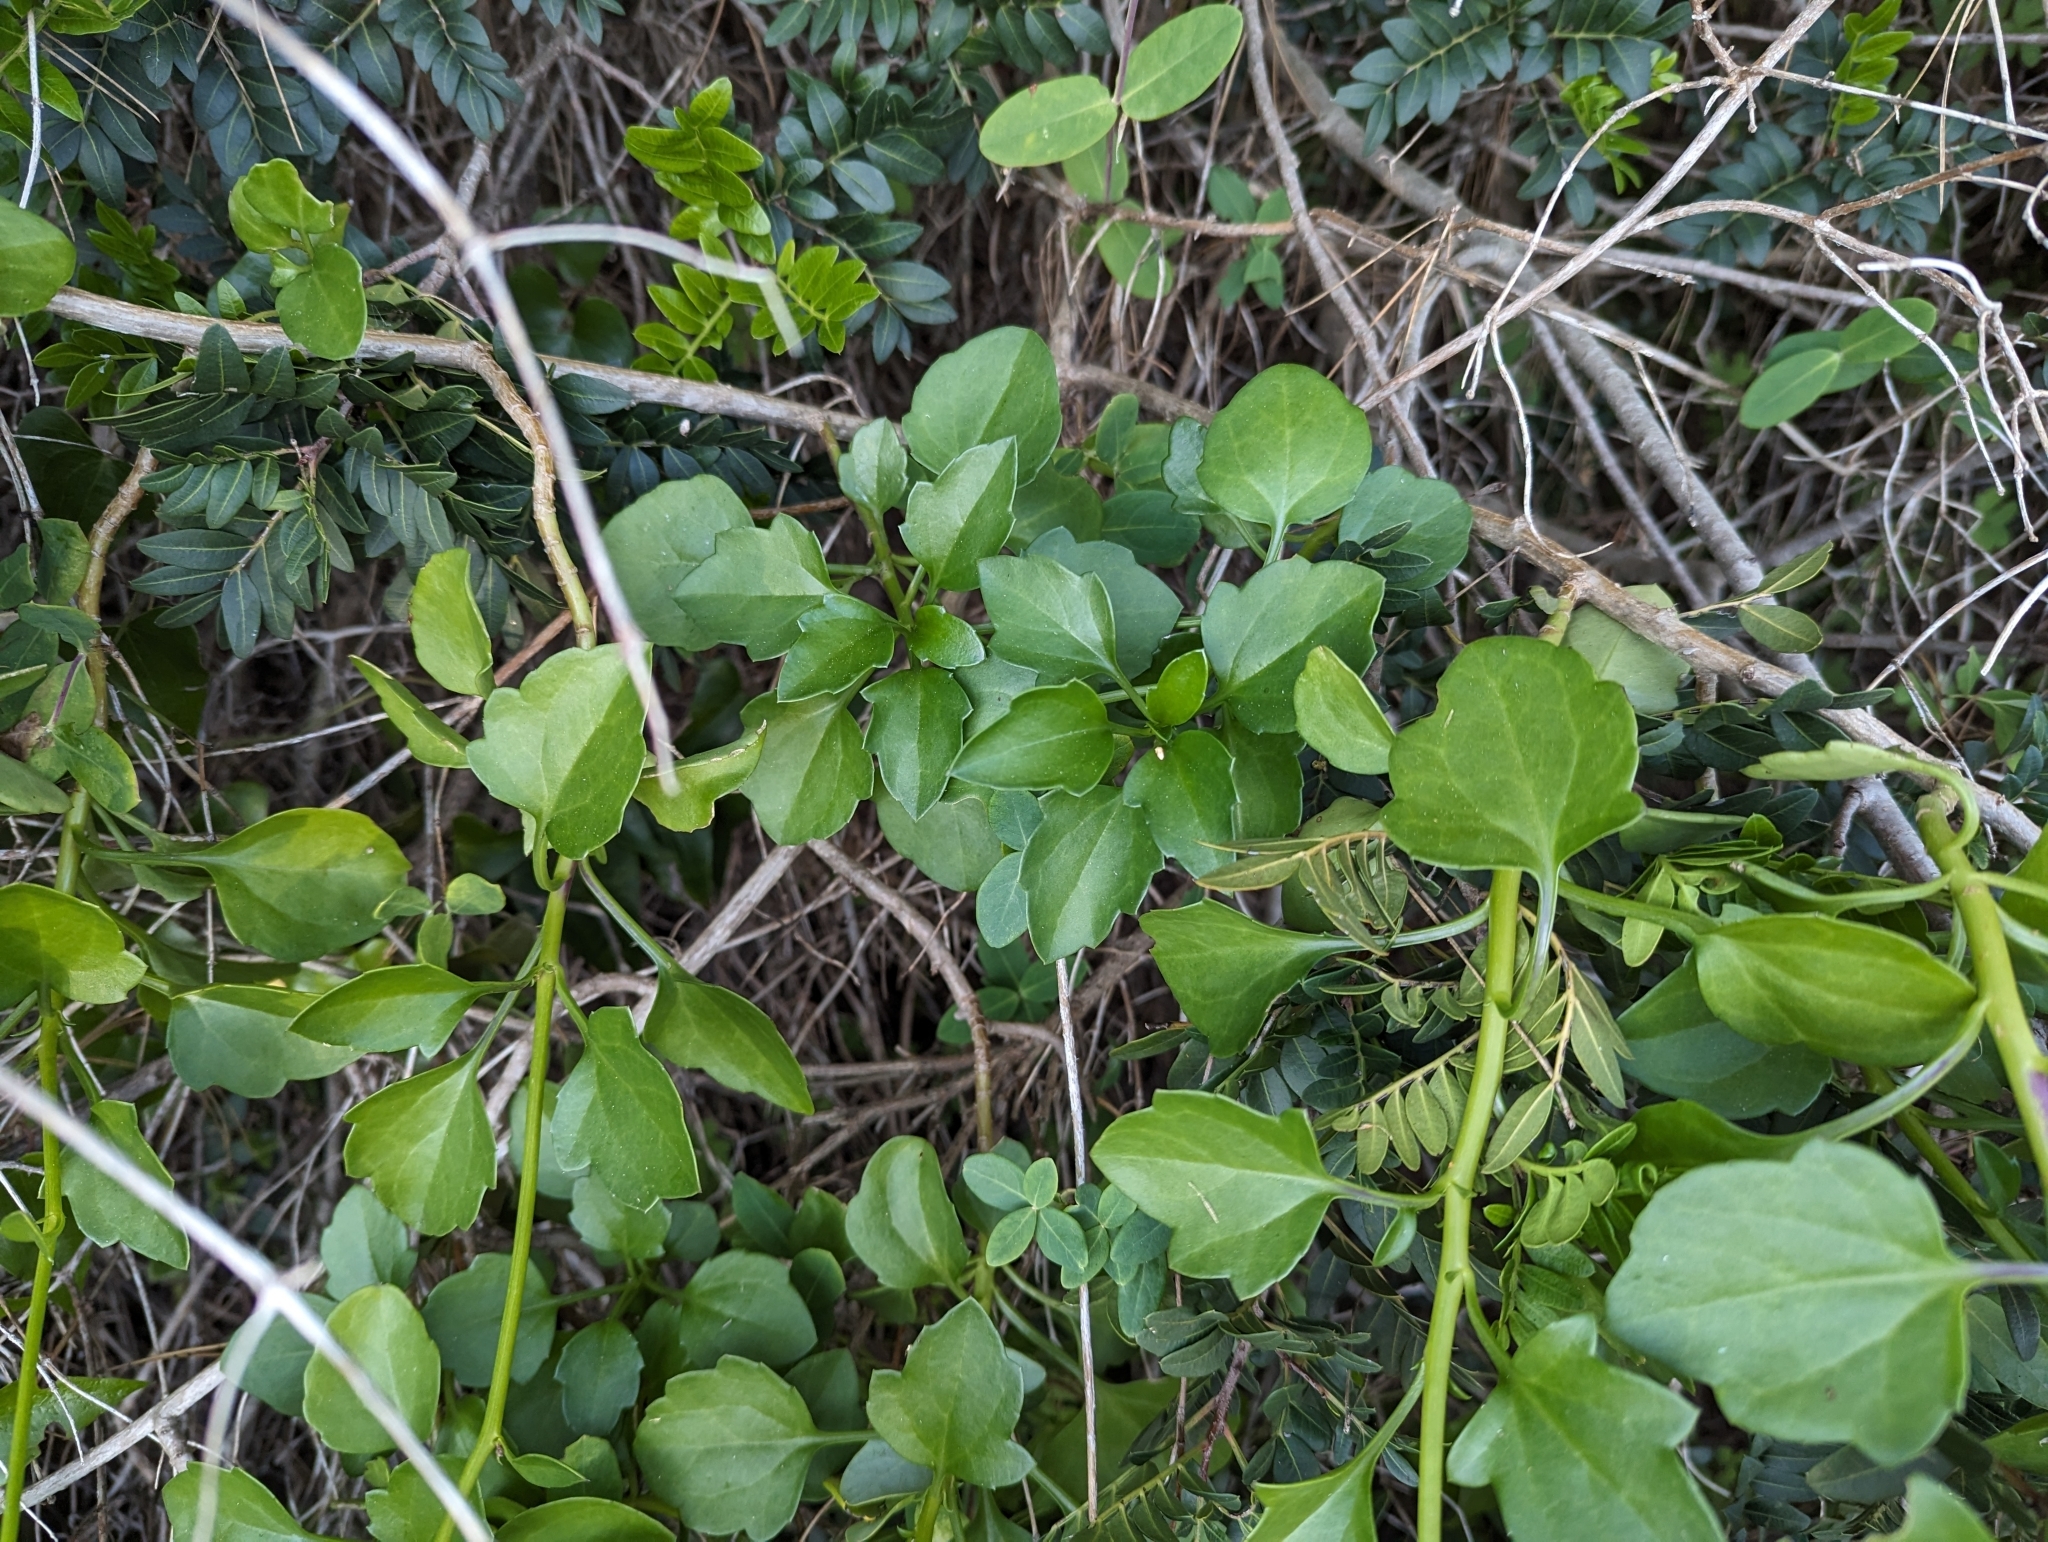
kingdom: Plantae
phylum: Tracheophyta
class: Magnoliopsida
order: Asterales
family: Asteraceae
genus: Senecio
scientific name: Senecio angulatus
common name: Climbing groundsel
